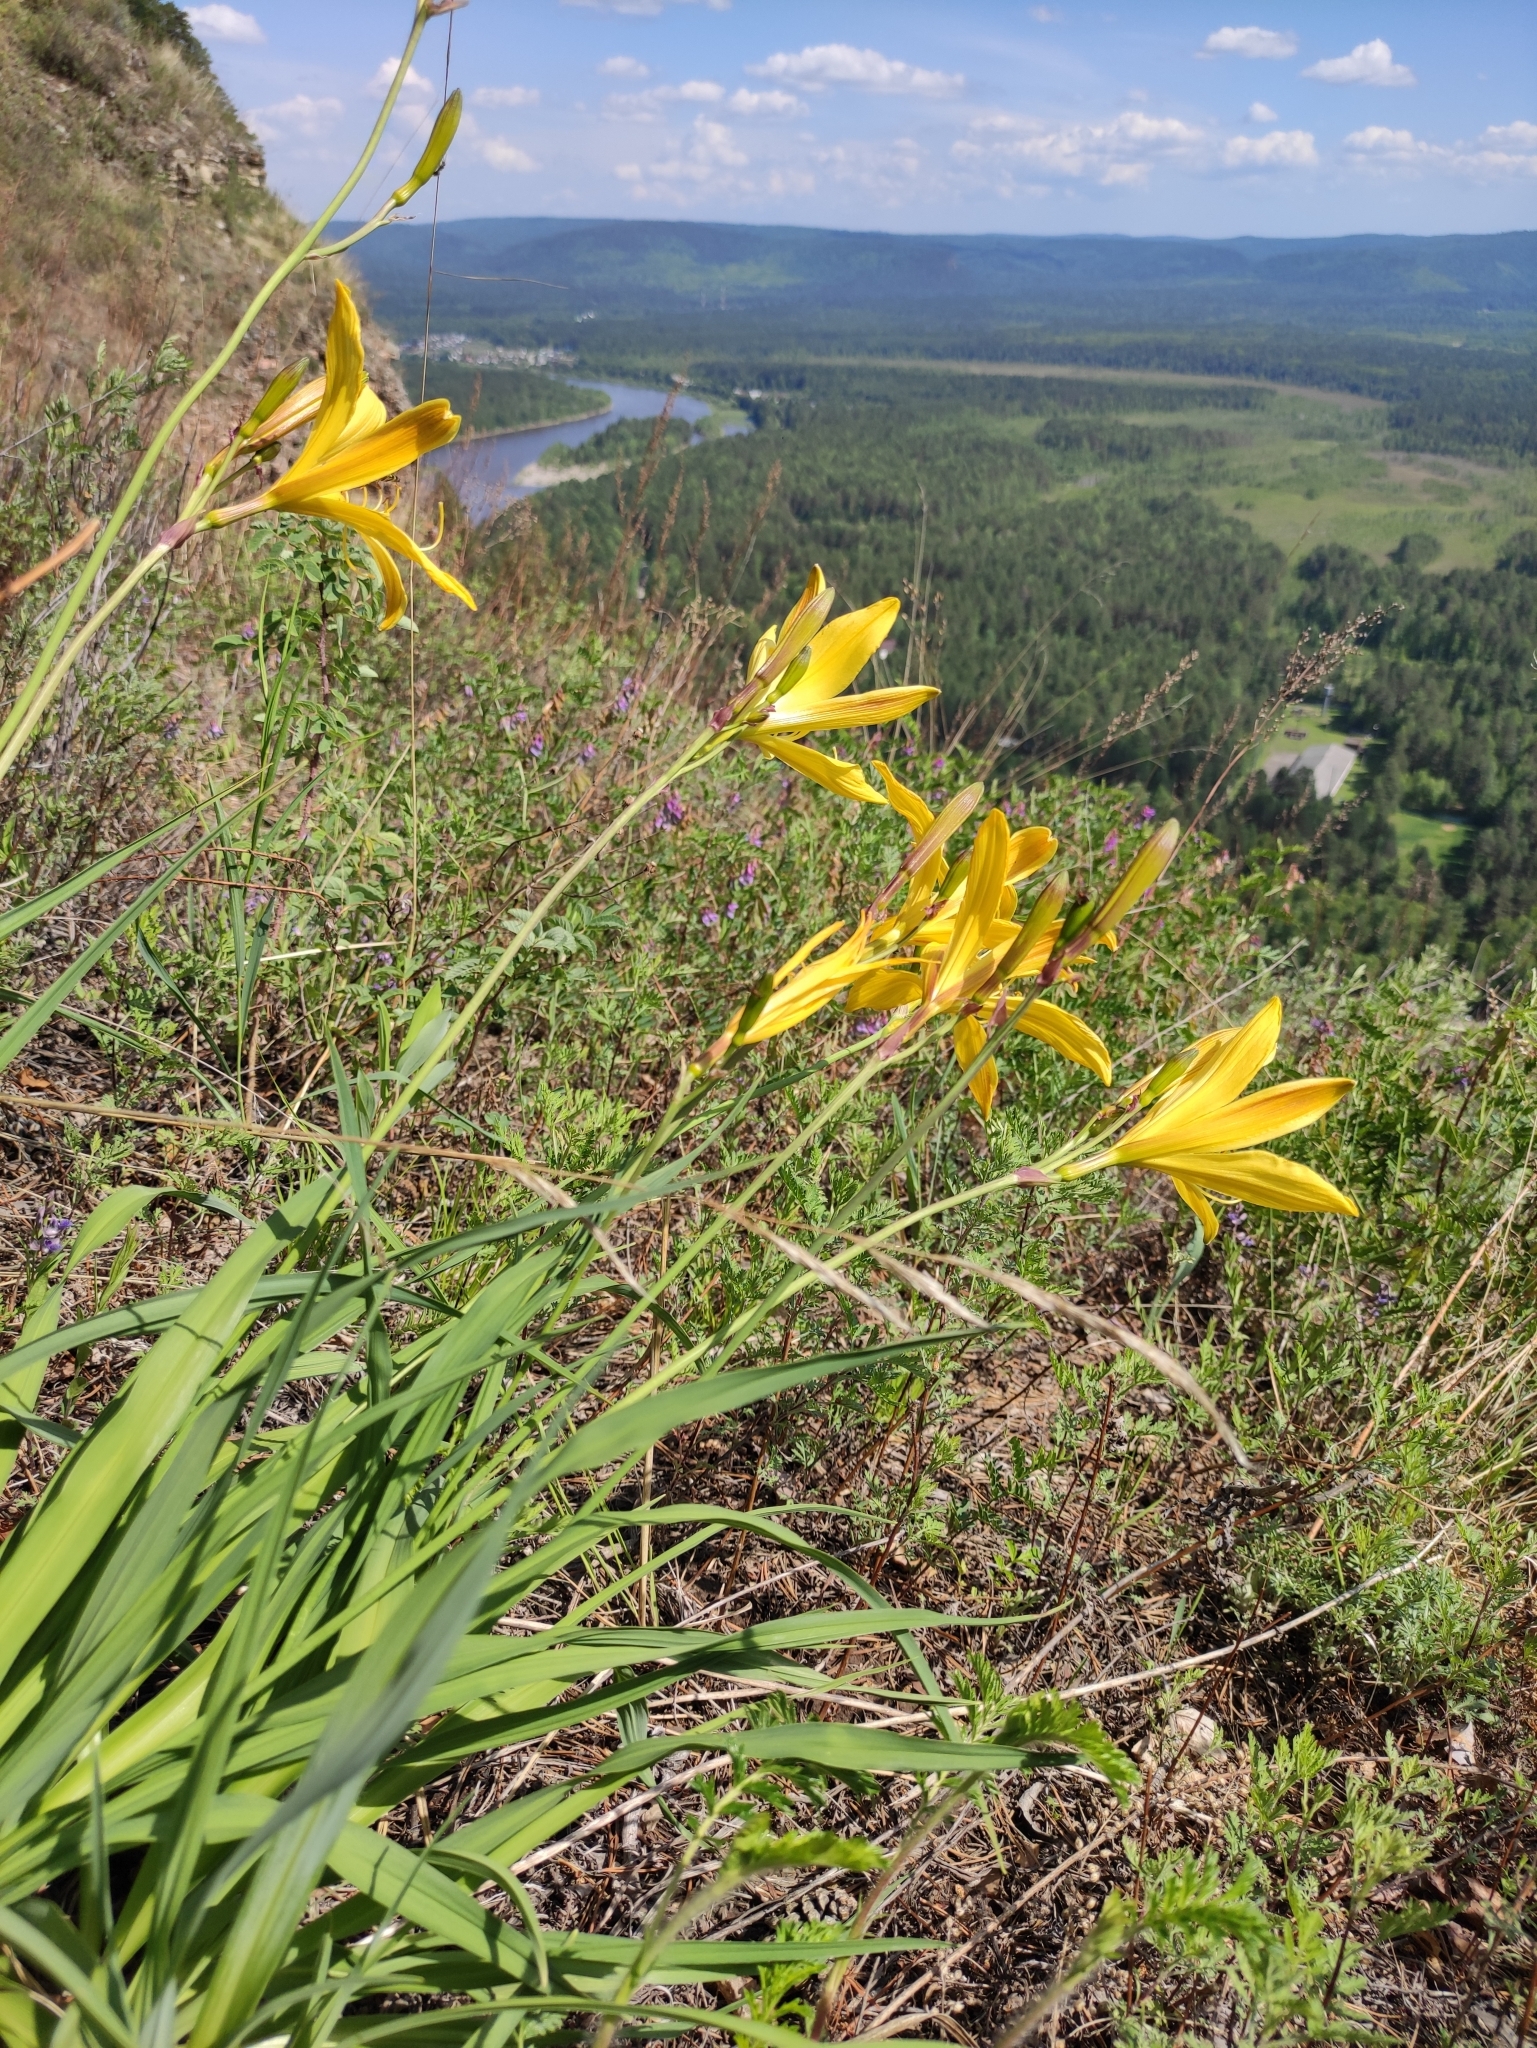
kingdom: Plantae
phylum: Tracheophyta
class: Liliopsida
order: Asparagales
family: Asphodelaceae
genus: Hemerocallis
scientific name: Hemerocallis minor
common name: Small daylily
